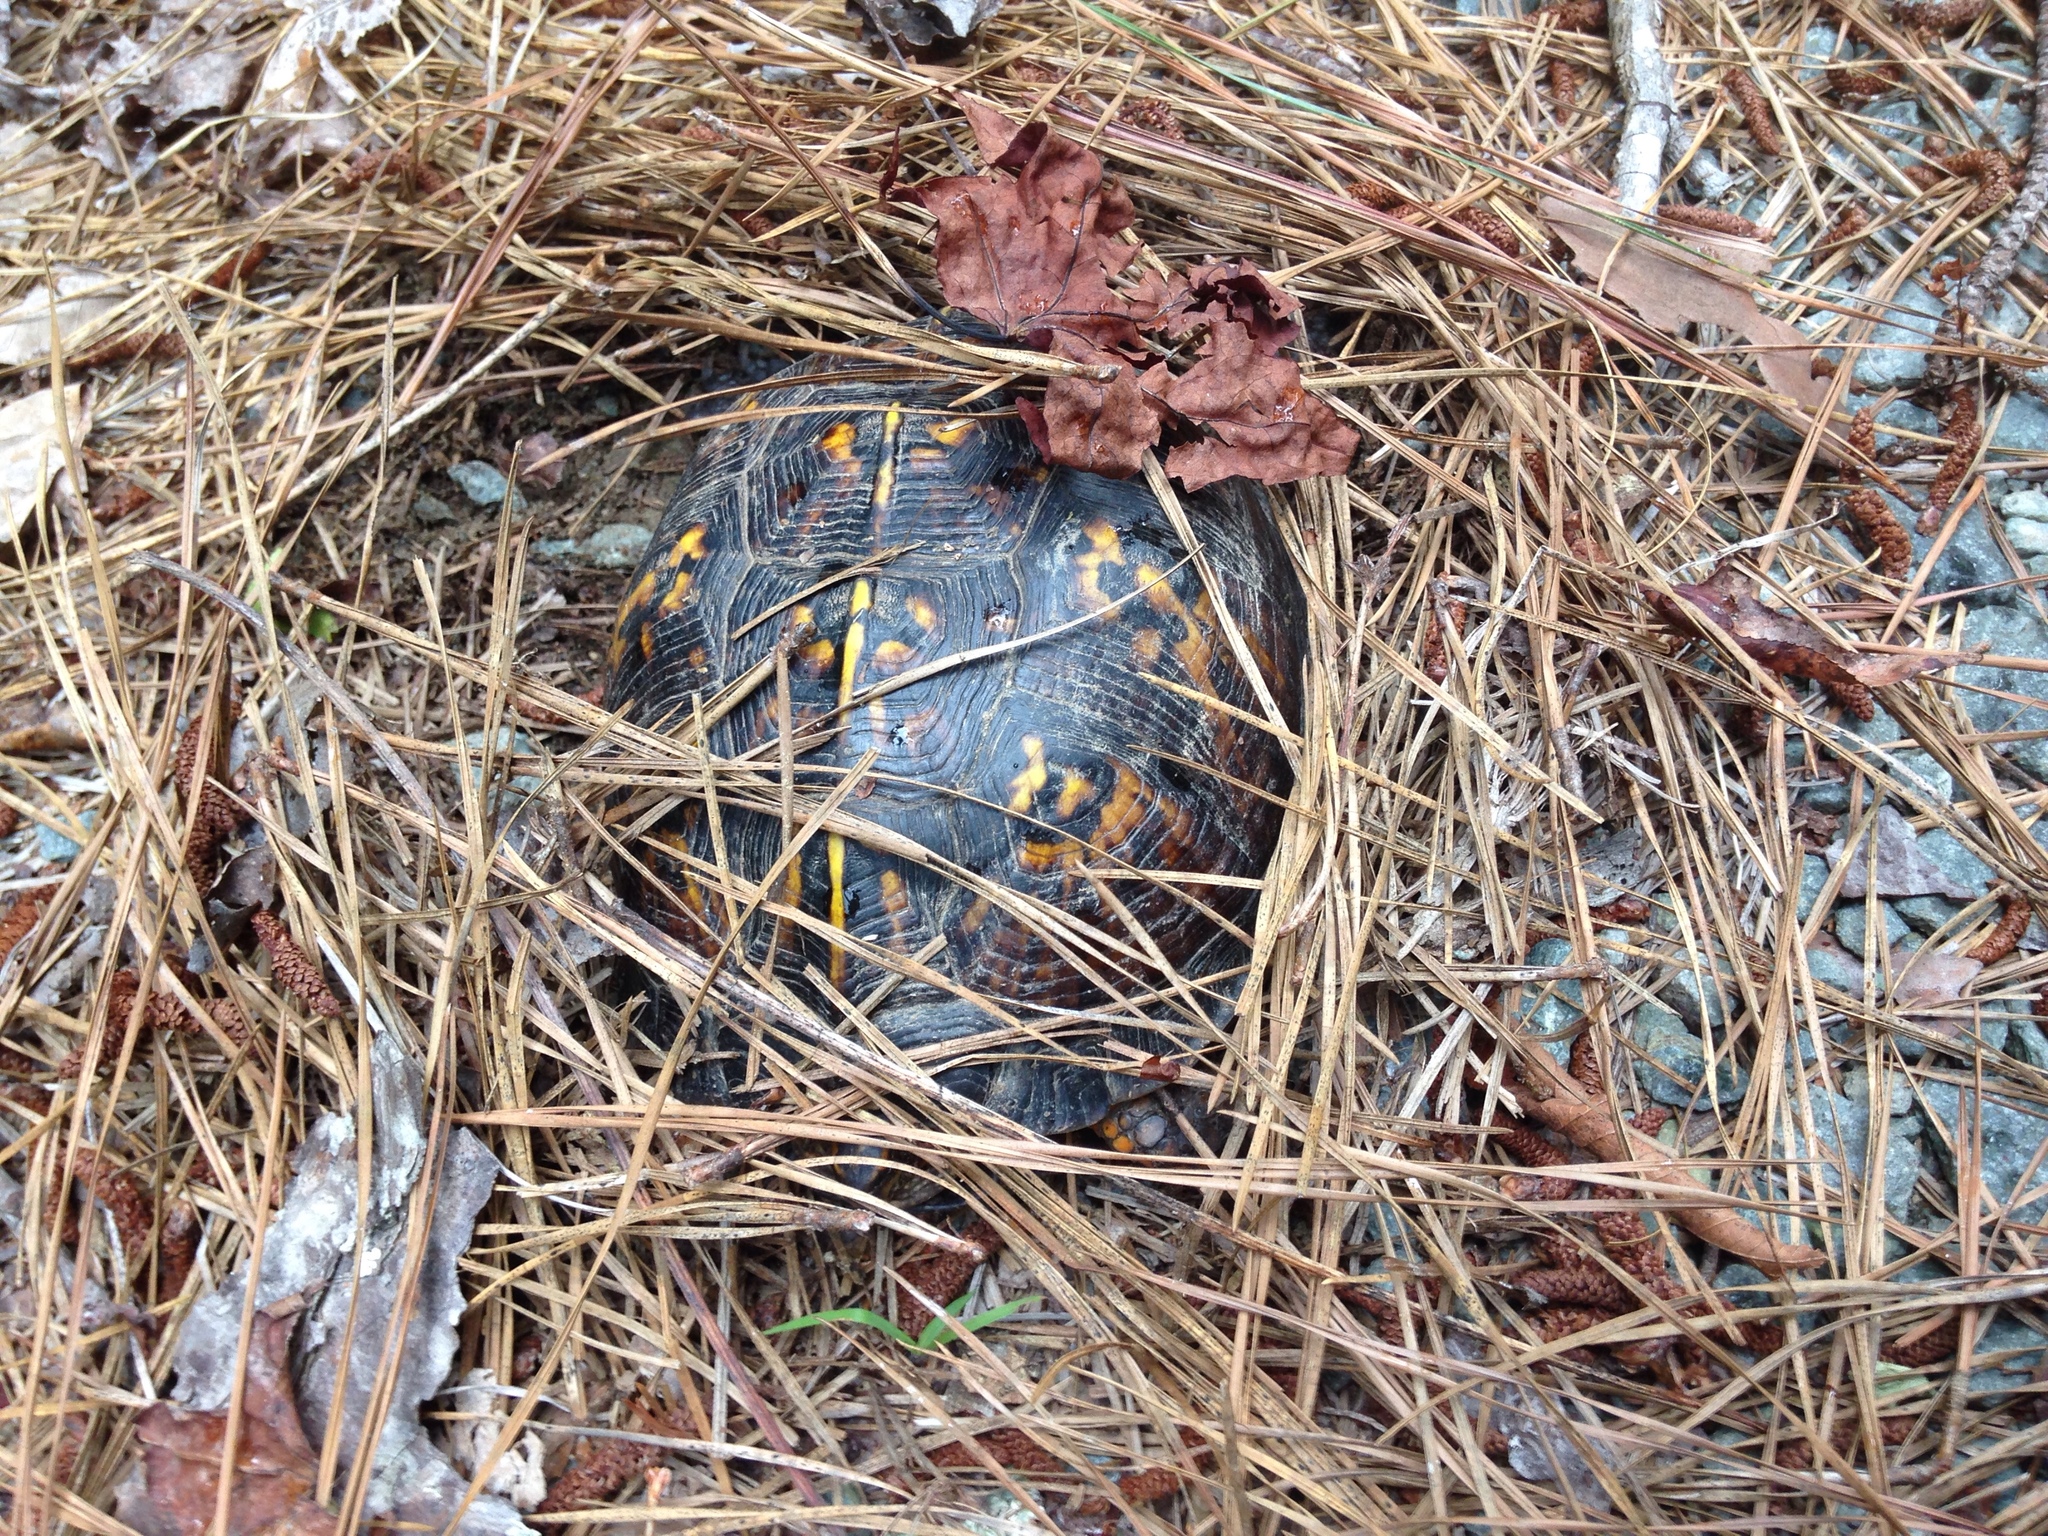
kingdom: Animalia
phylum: Chordata
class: Testudines
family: Emydidae
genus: Terrapene
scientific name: Terrapene carolina
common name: Common box turtle
